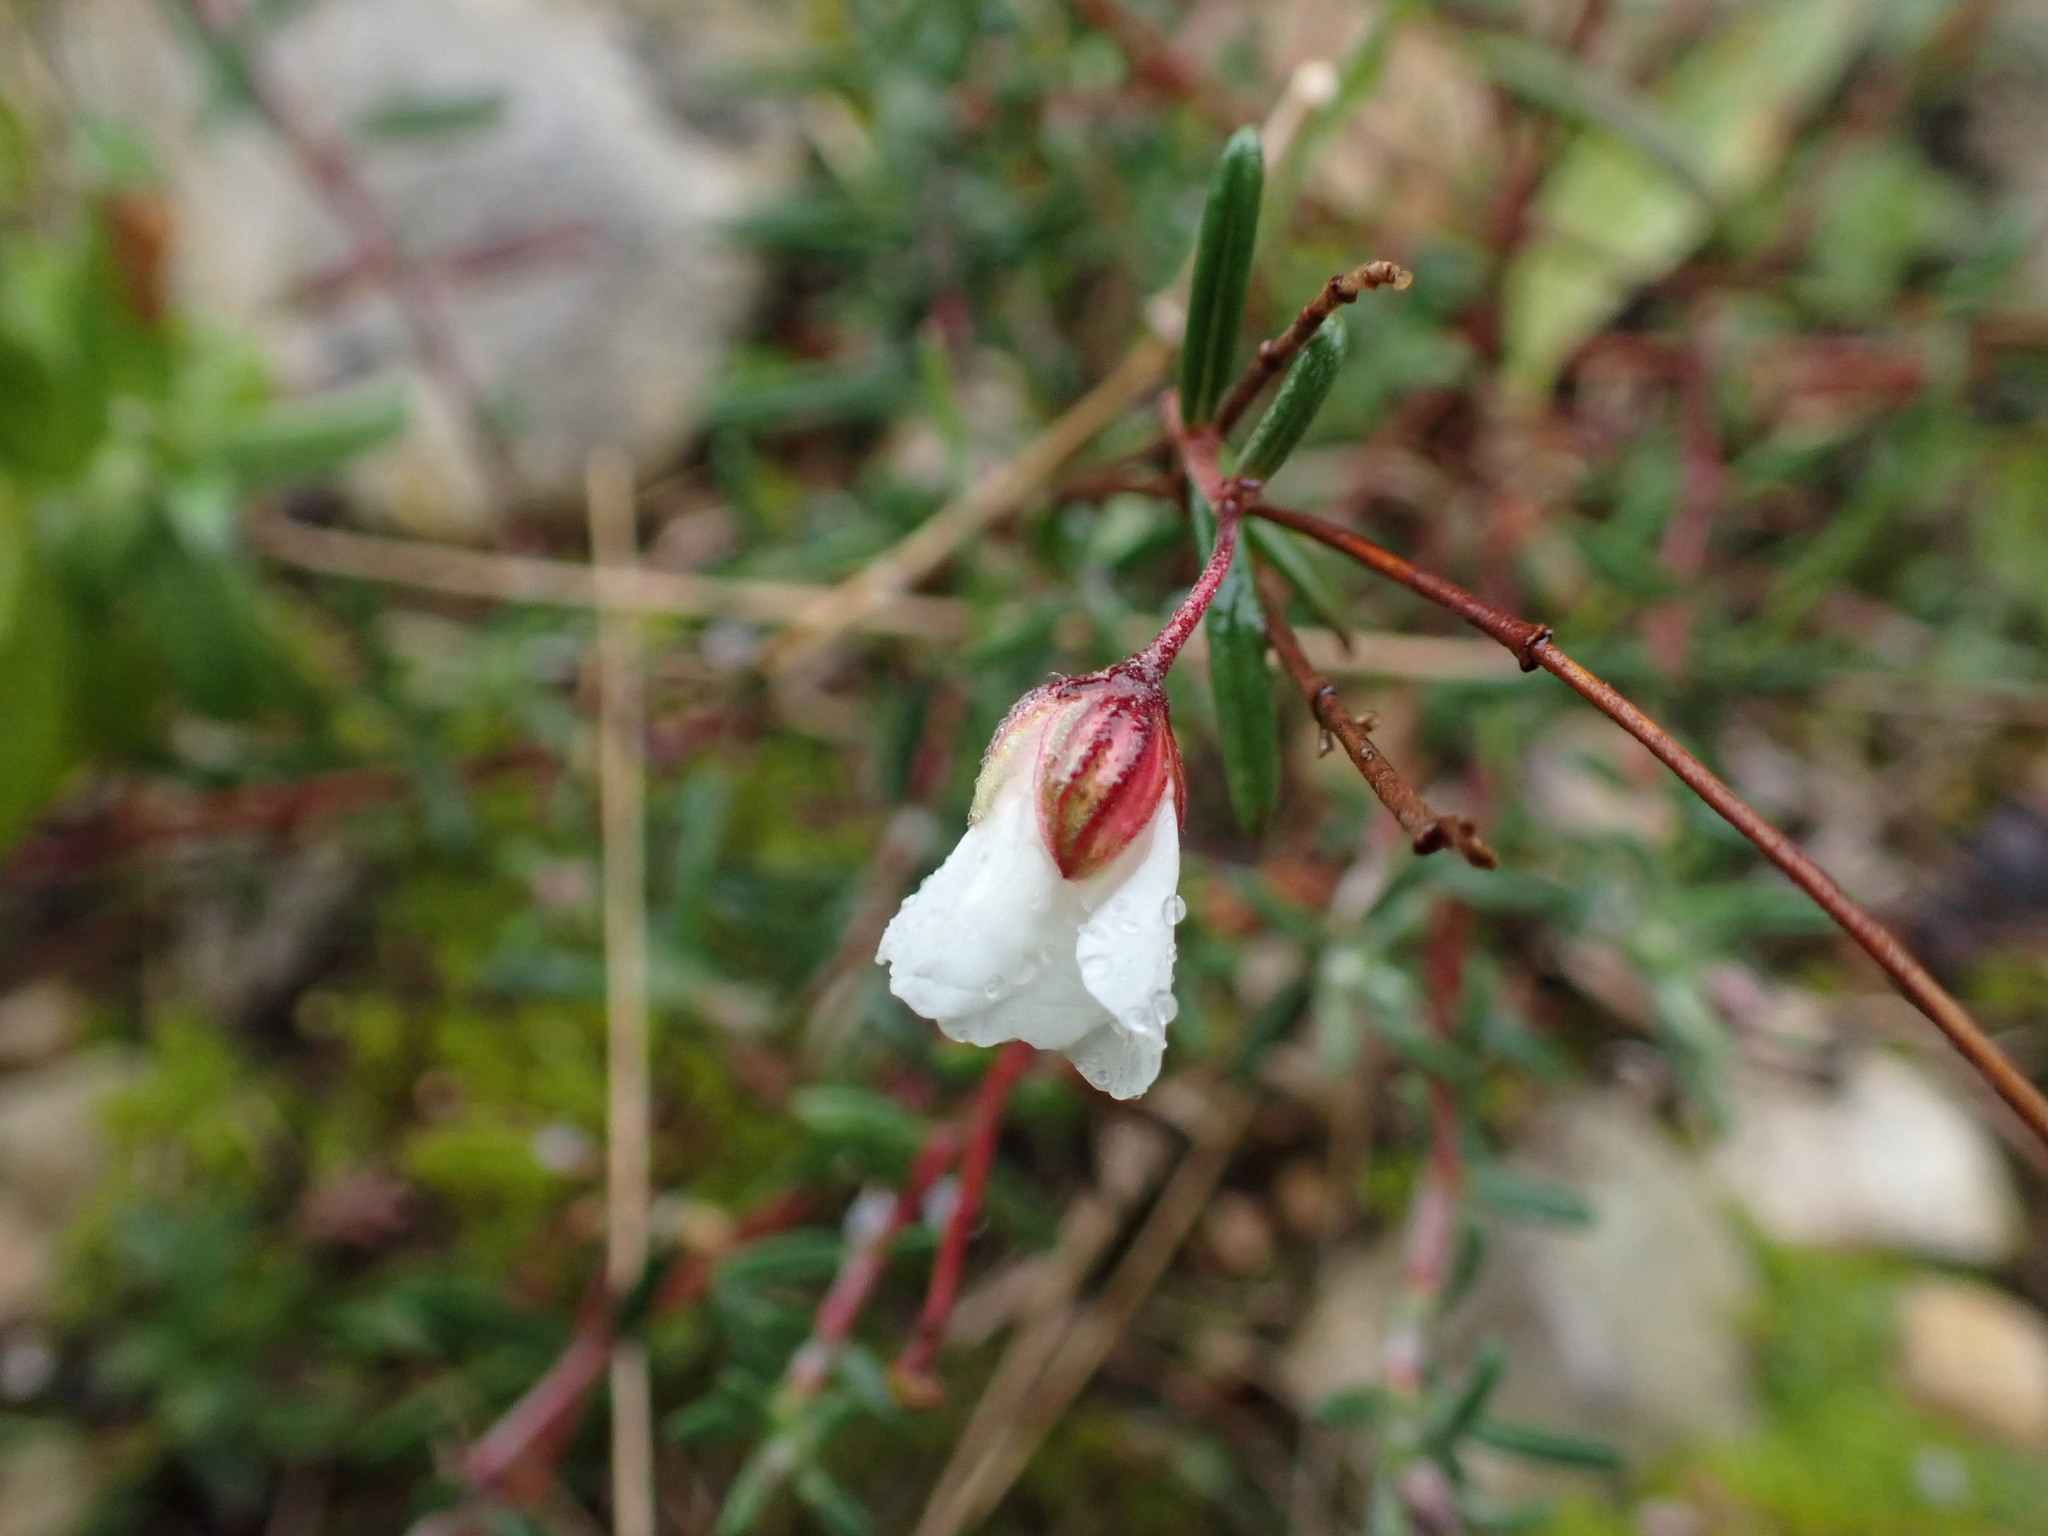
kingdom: Plantae
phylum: Tracheophyta
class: Magnoliopsida
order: Malvales
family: Cistaceae
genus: Helianthemum
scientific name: Helianthemum apenninum
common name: White rock-rose
